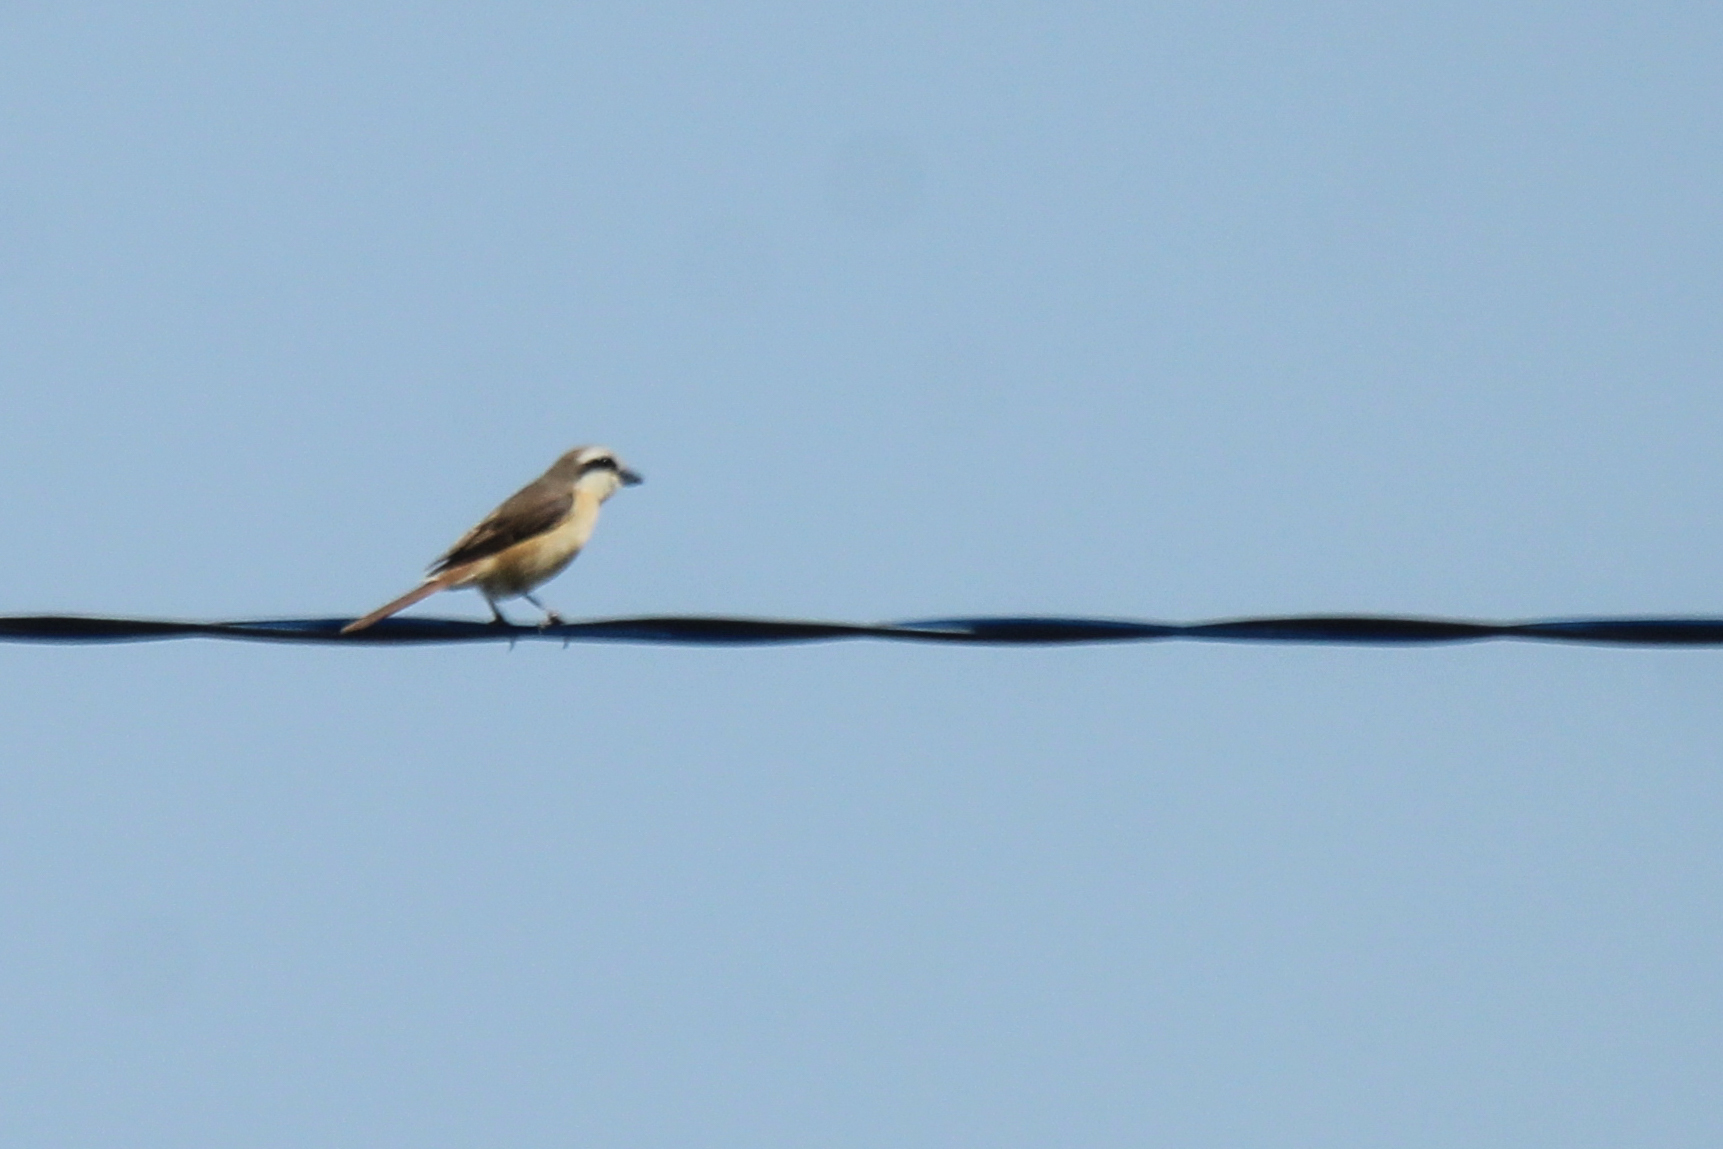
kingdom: Animalia
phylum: Chordata
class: Aves
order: Passeriformes
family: Laniidae
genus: Lanius
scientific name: Lanius cristatus
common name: Brown shrike
